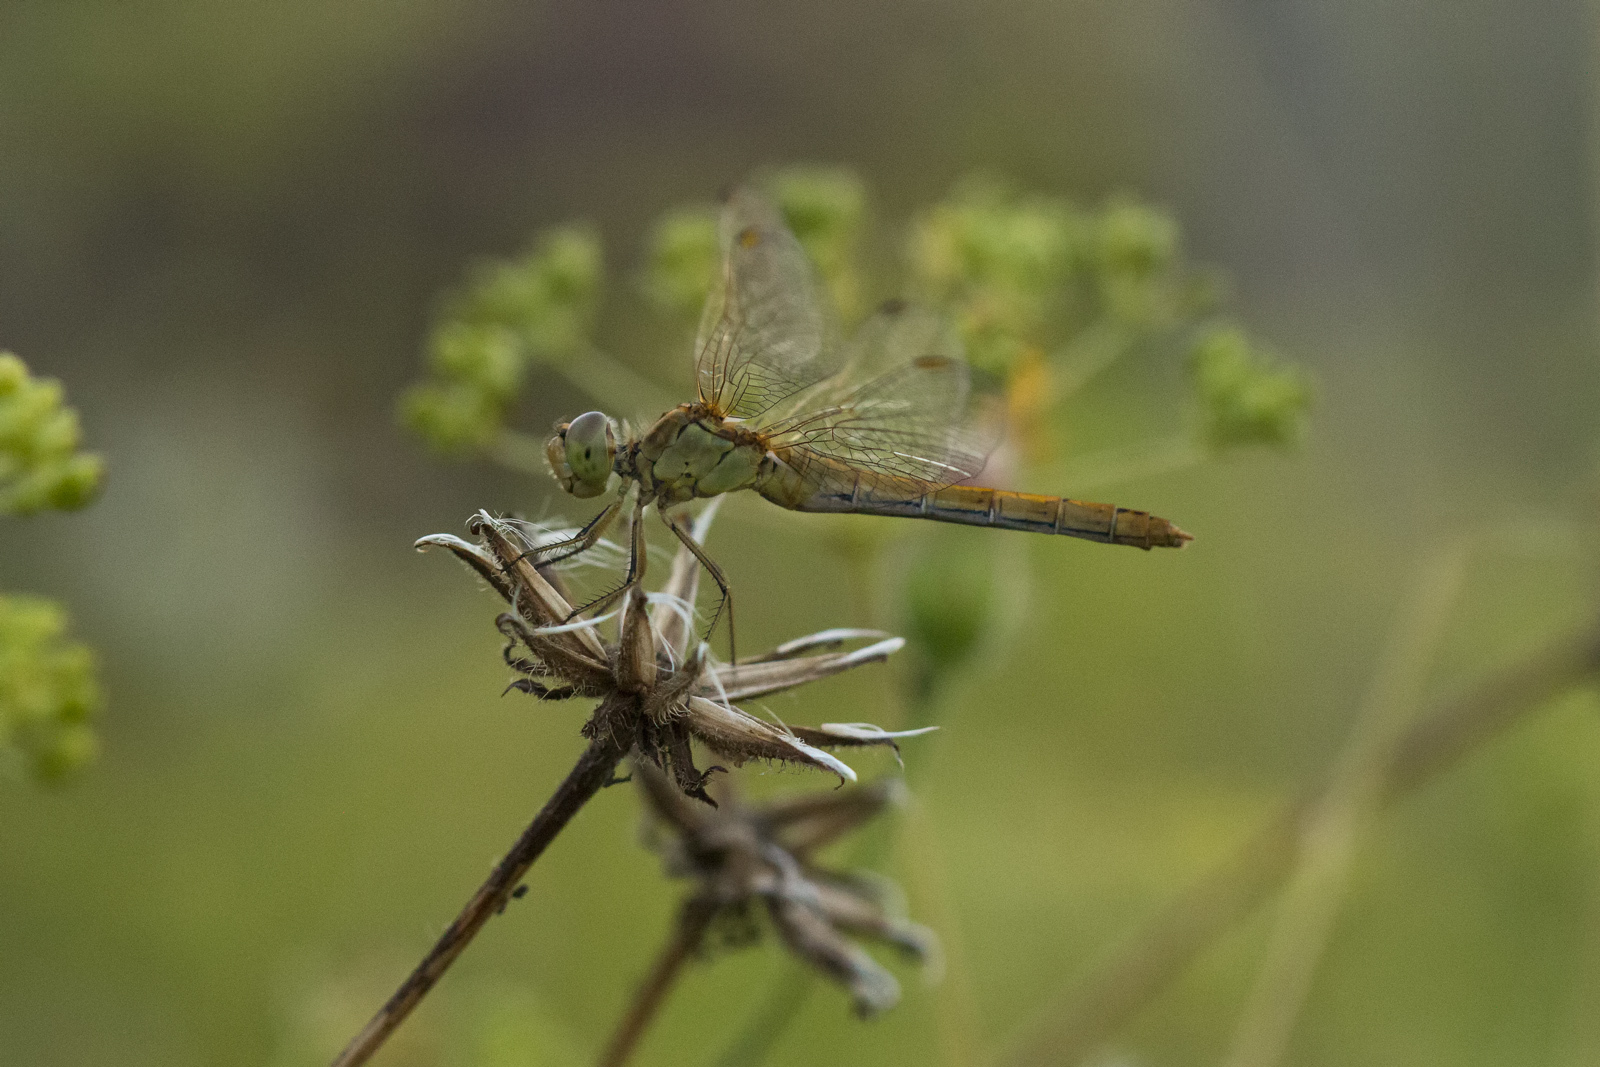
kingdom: Animalia
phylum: Arthropoda
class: Insecta
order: Odonata
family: Libellulidae
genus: Sympetrum
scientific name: Sympetrum meridionale
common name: Southern darter
